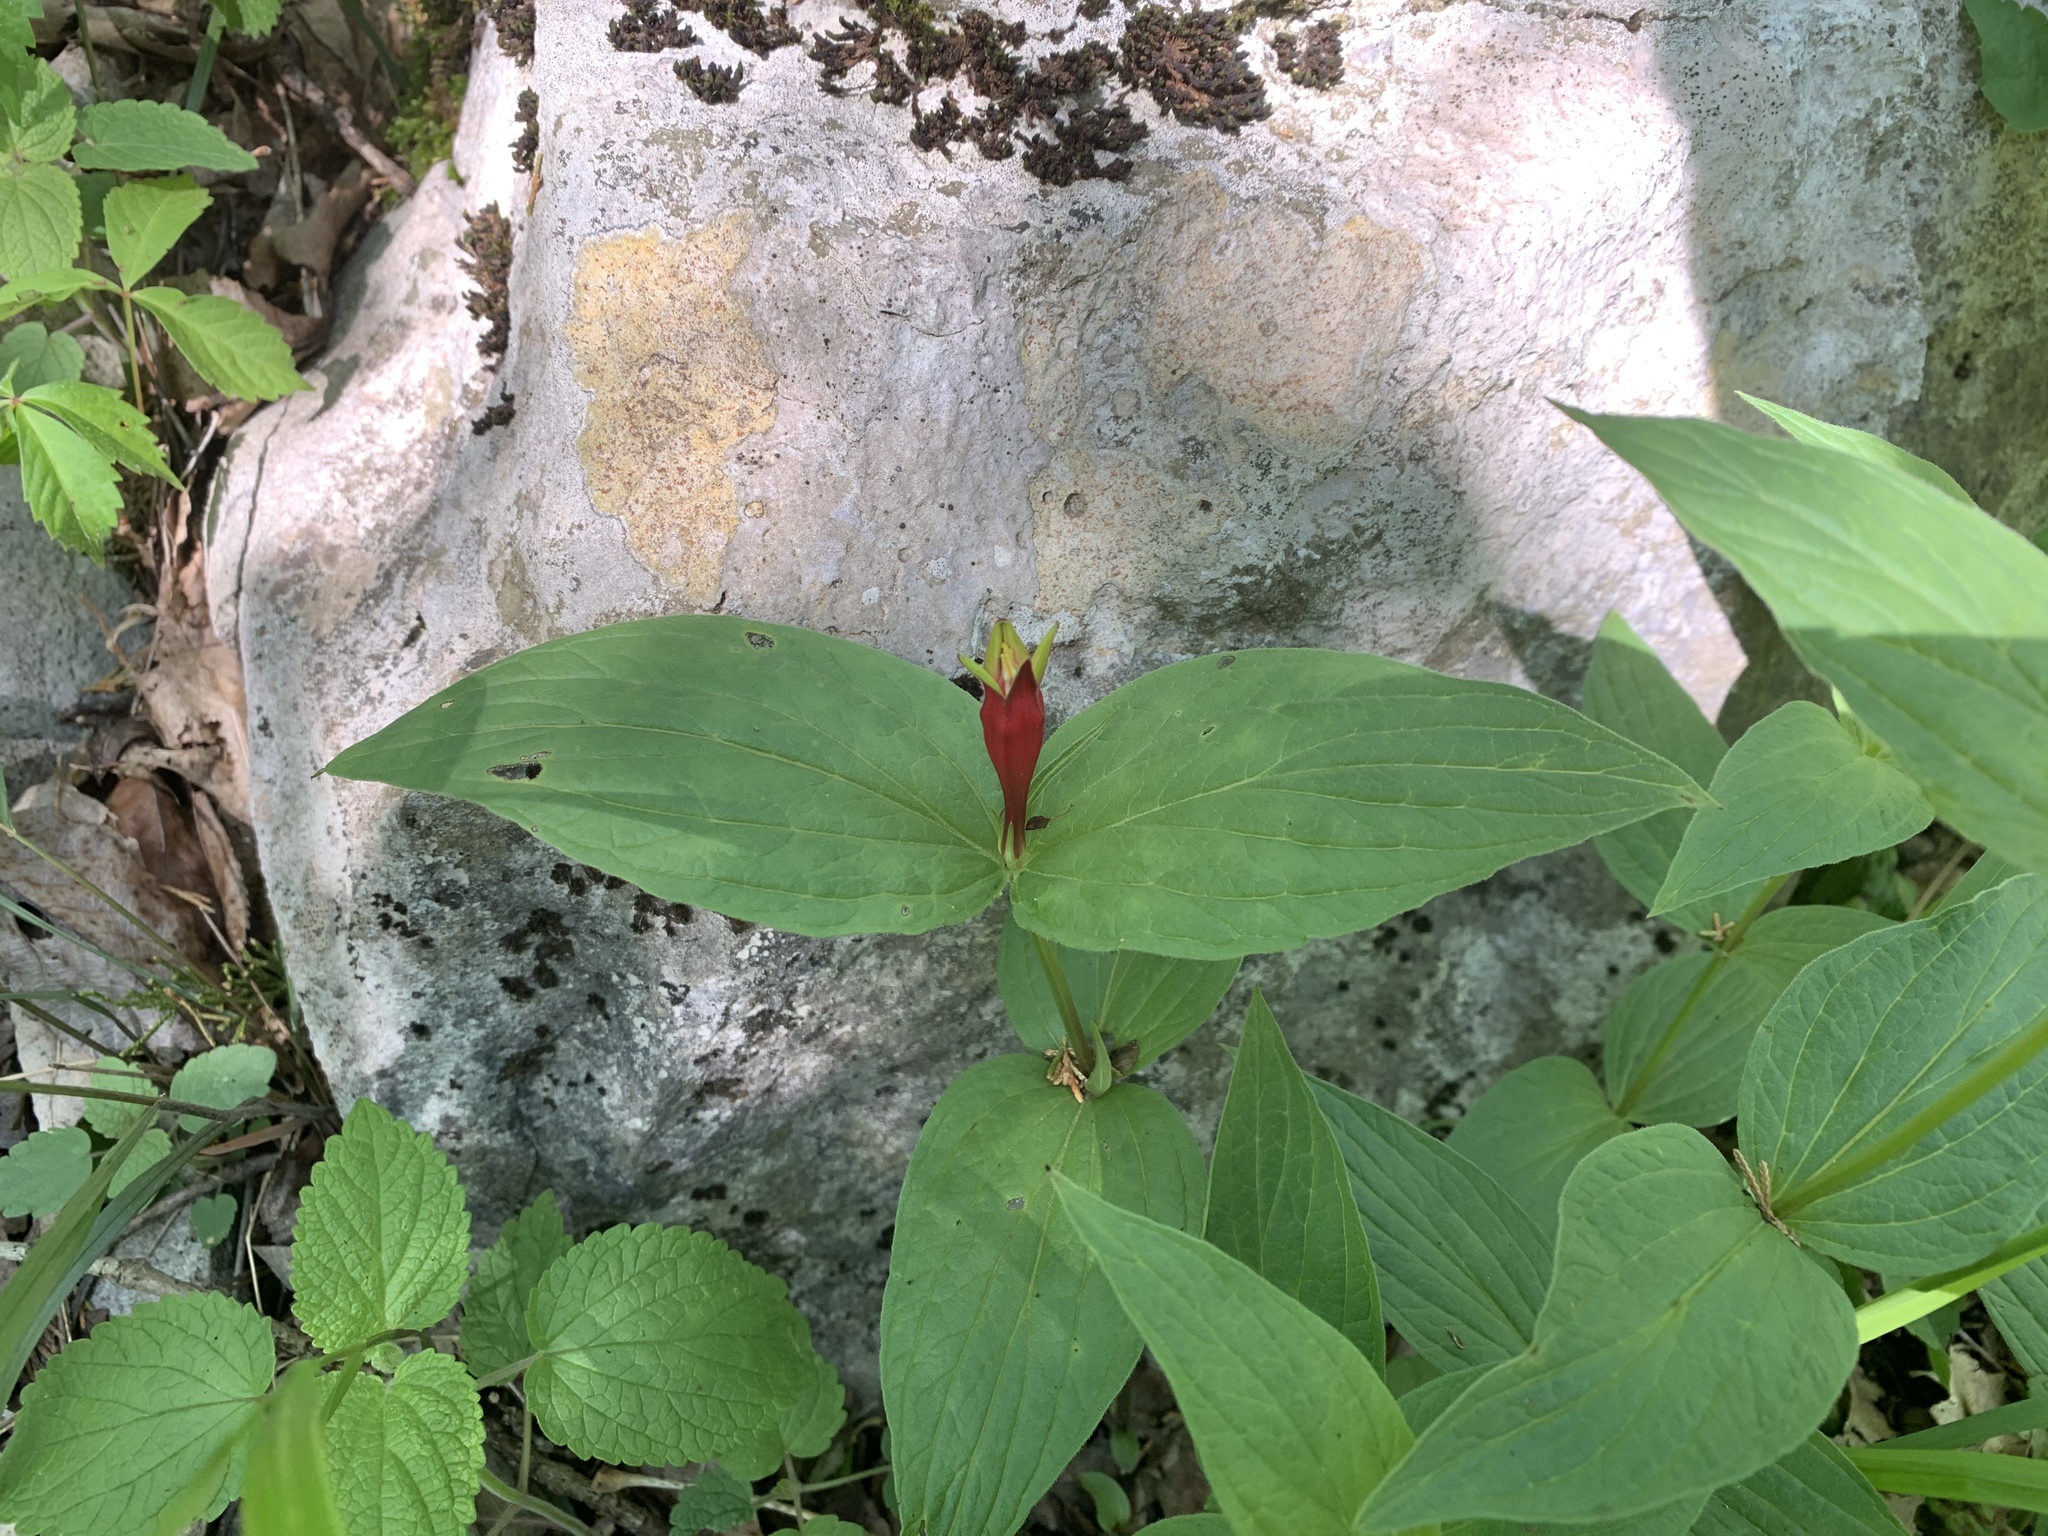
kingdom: Plantae
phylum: Tracheophyta
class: Magnoliopsida
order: Gentianales
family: Loganiaceae
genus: Spigelia
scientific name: Spigelia marilandica
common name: Indian-pink
